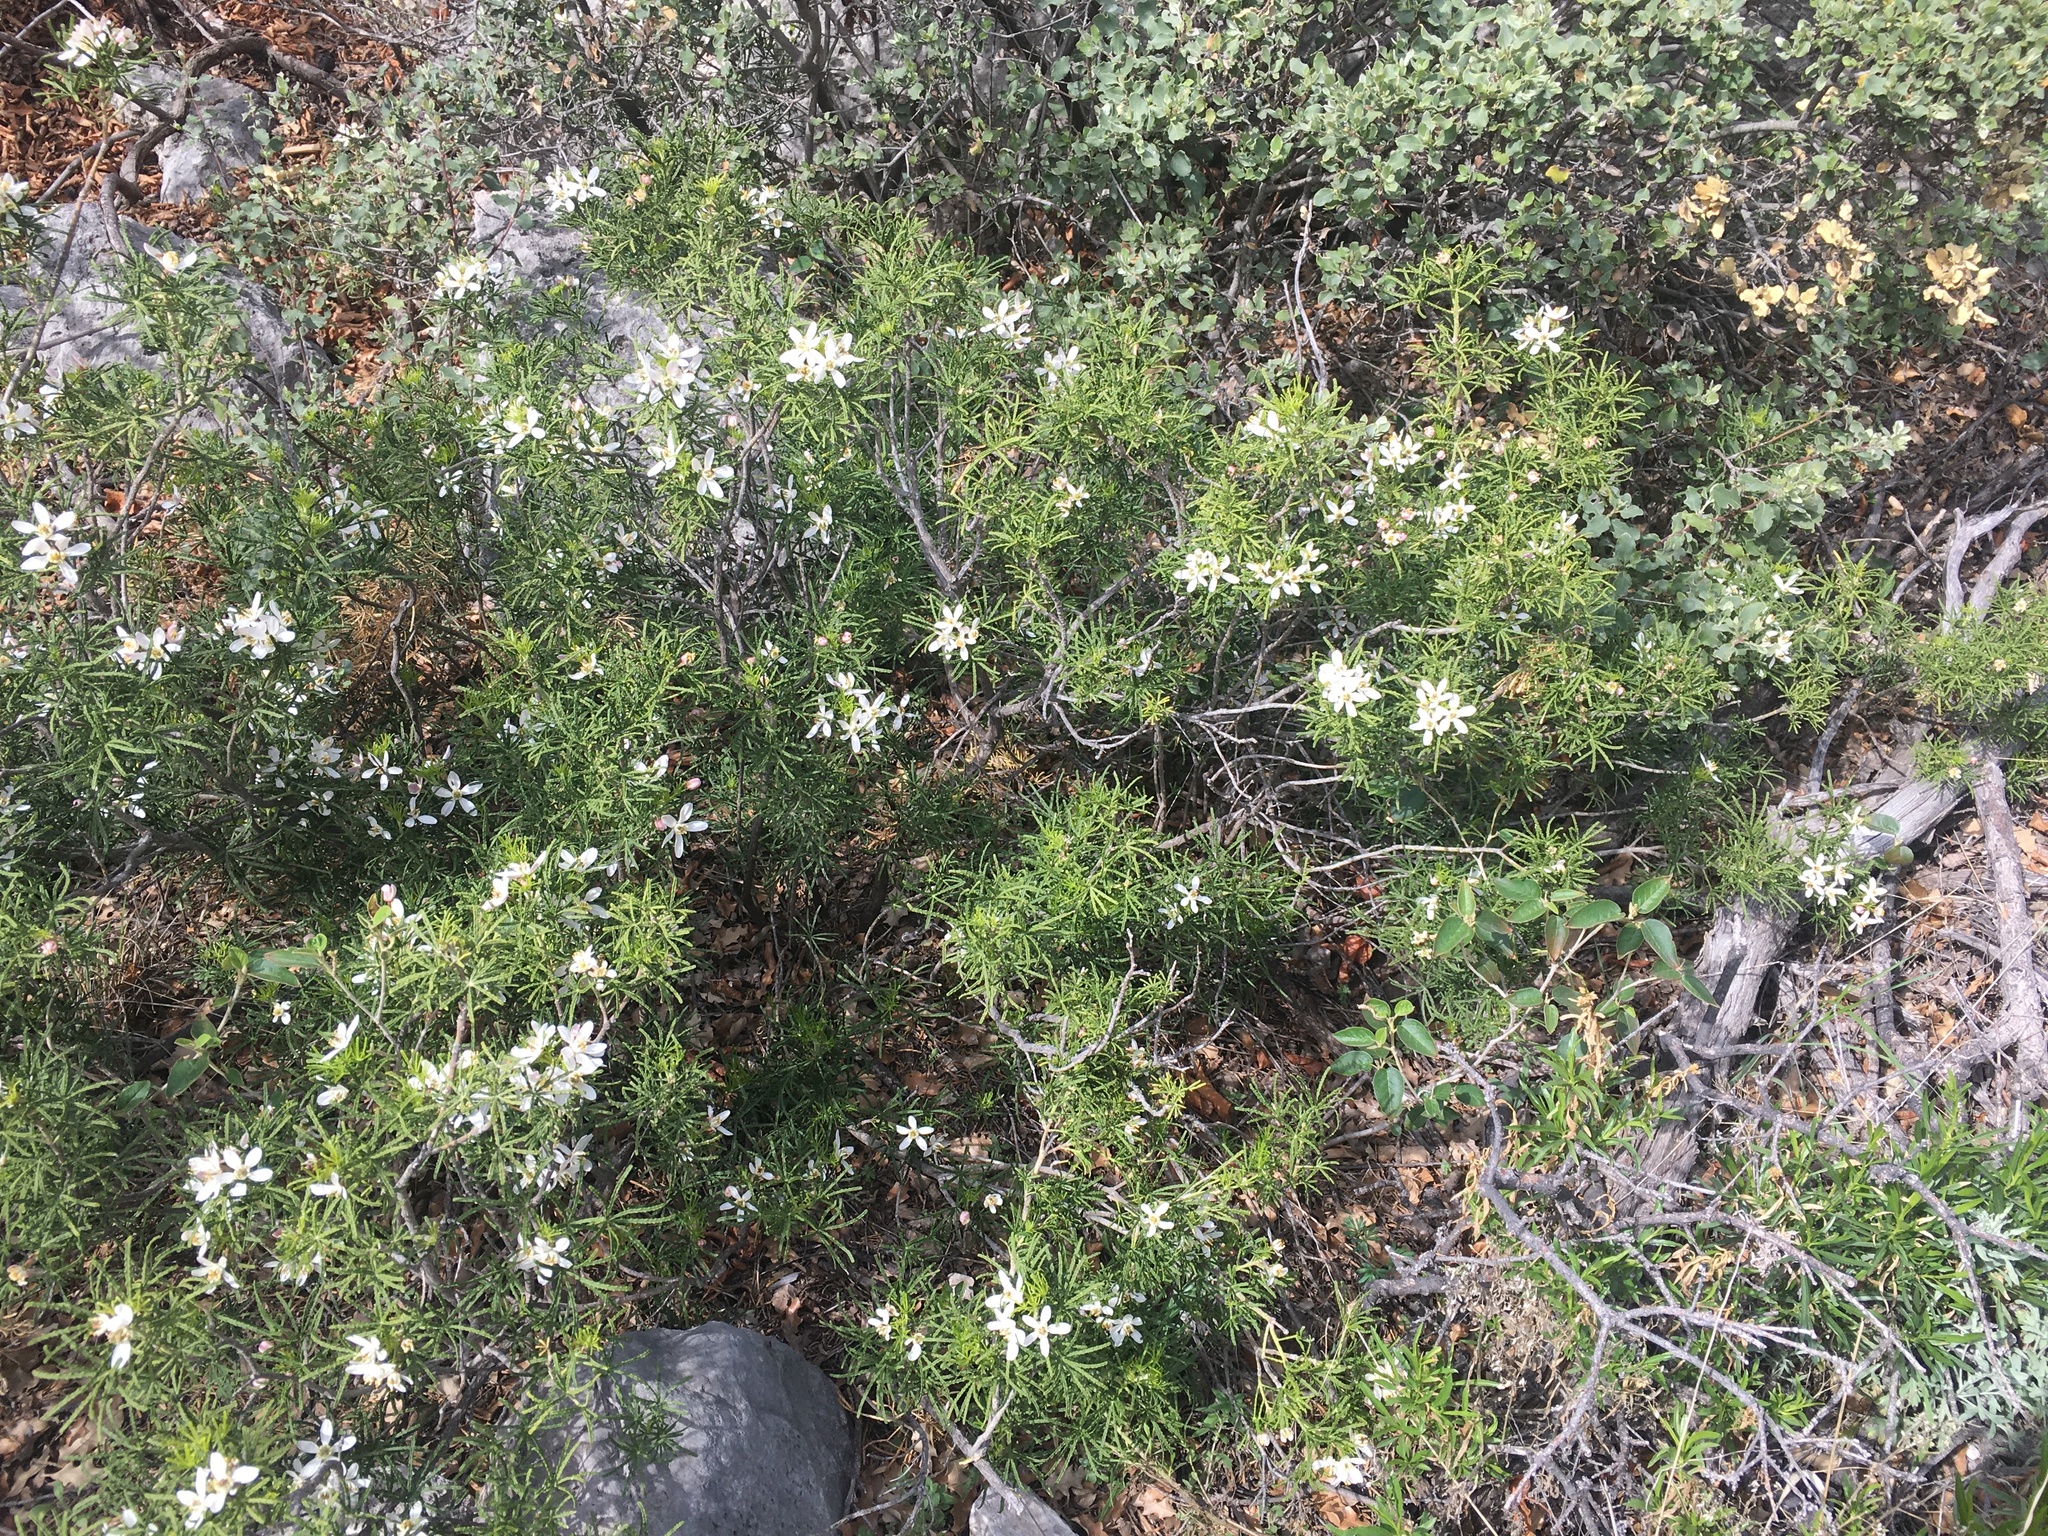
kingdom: Plantae
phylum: Tracheophyta
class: Magnoliopsida
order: Sapindales
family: Rutaceae
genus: Choisya
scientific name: Choisya dumosa
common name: Mexican-orange
